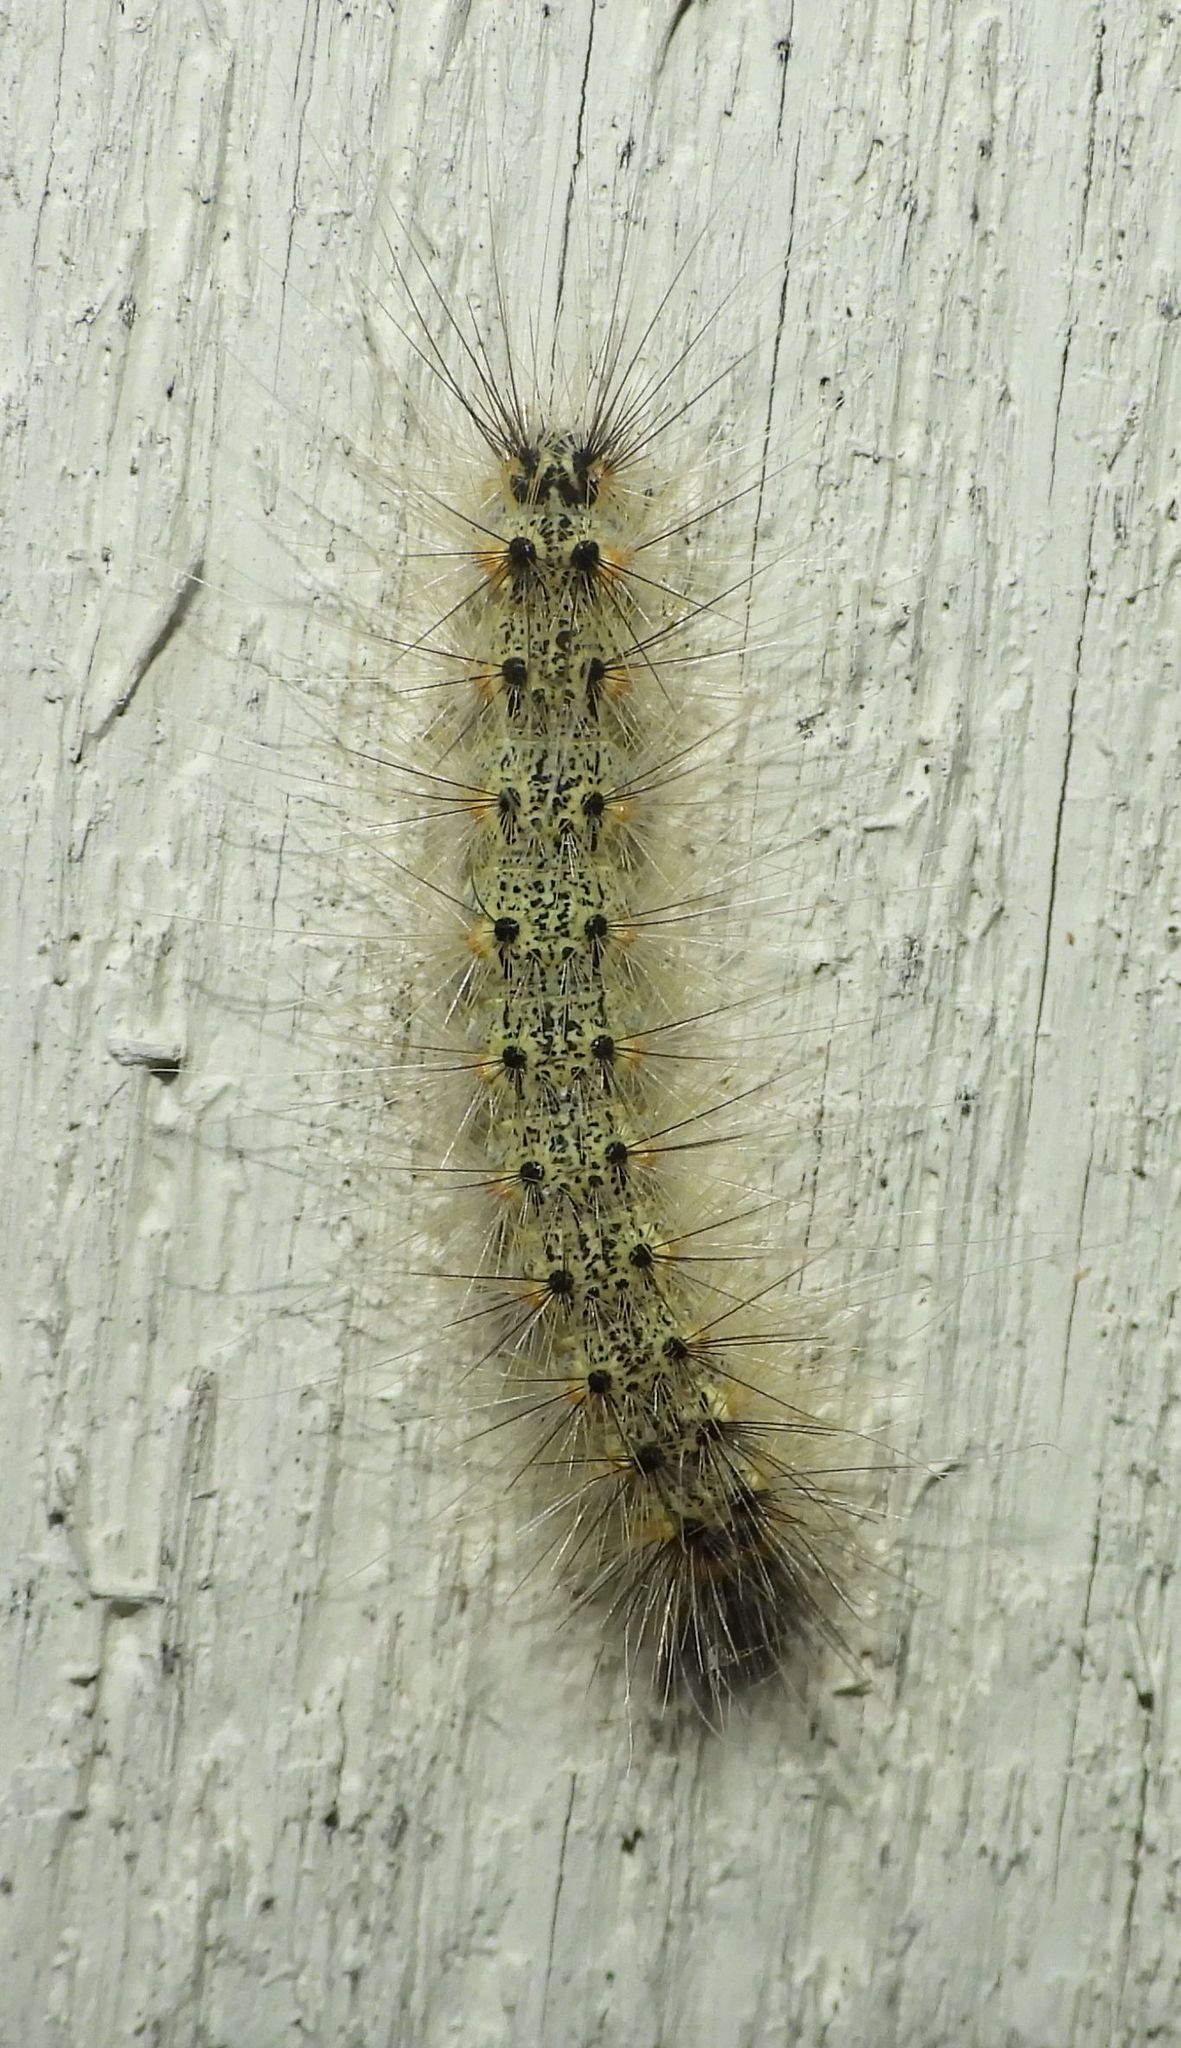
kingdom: Animalia
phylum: Arthropoda
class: Insecta
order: Lepidoptera
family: Erebidae
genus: Hyphantria
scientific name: Hyphantria cunea
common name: American white moth
